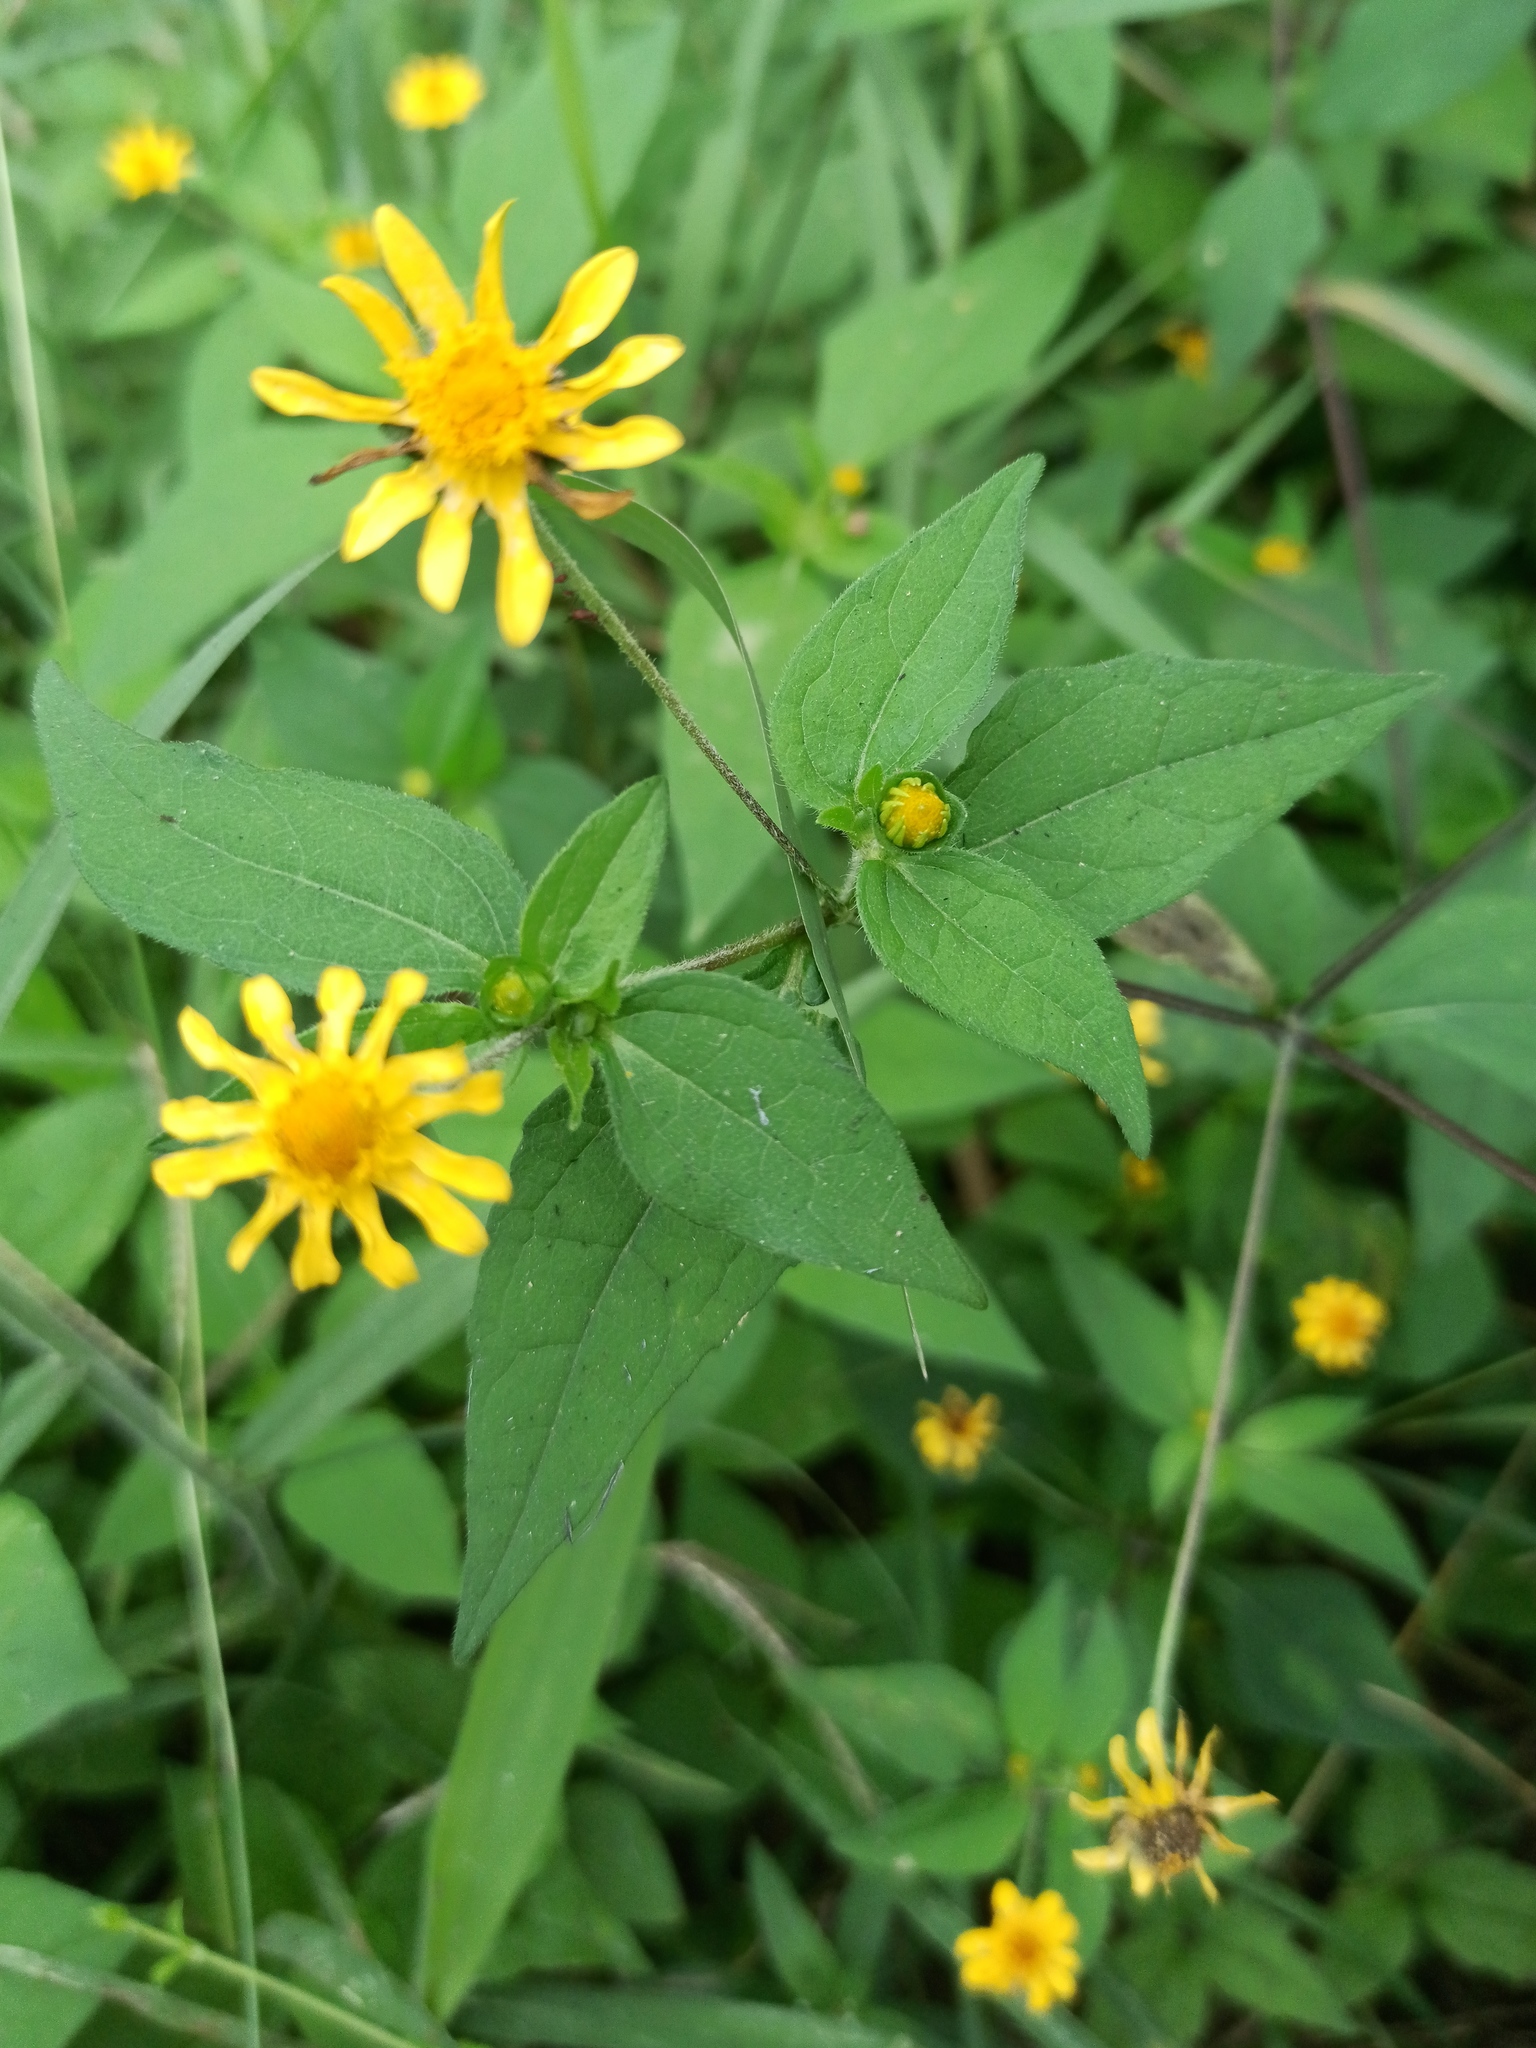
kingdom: Plantae
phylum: Tracheophyta
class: Magnoliopsida
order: Asterales
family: Asteraceae
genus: Melampodium
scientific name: Melampodium divaricatum
